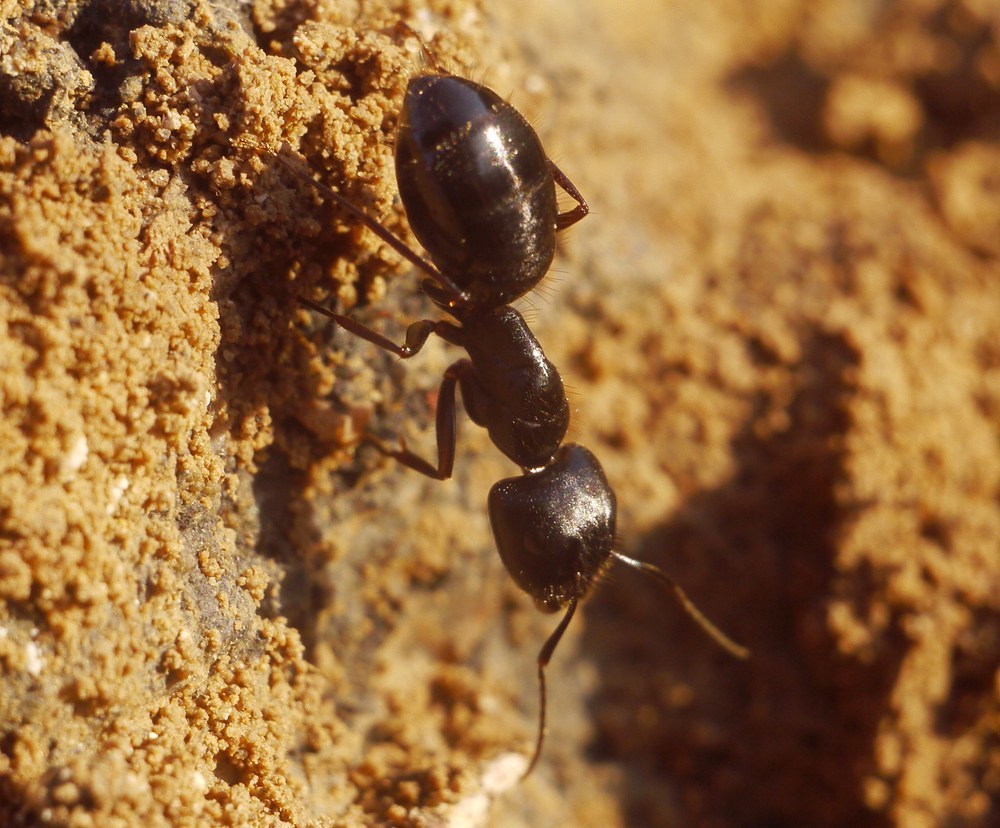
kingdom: Animalia
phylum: Arthropoda
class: Insecta
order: Hymenoptera
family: Formicidae
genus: Camponotus
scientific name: Camponotus aethiops
